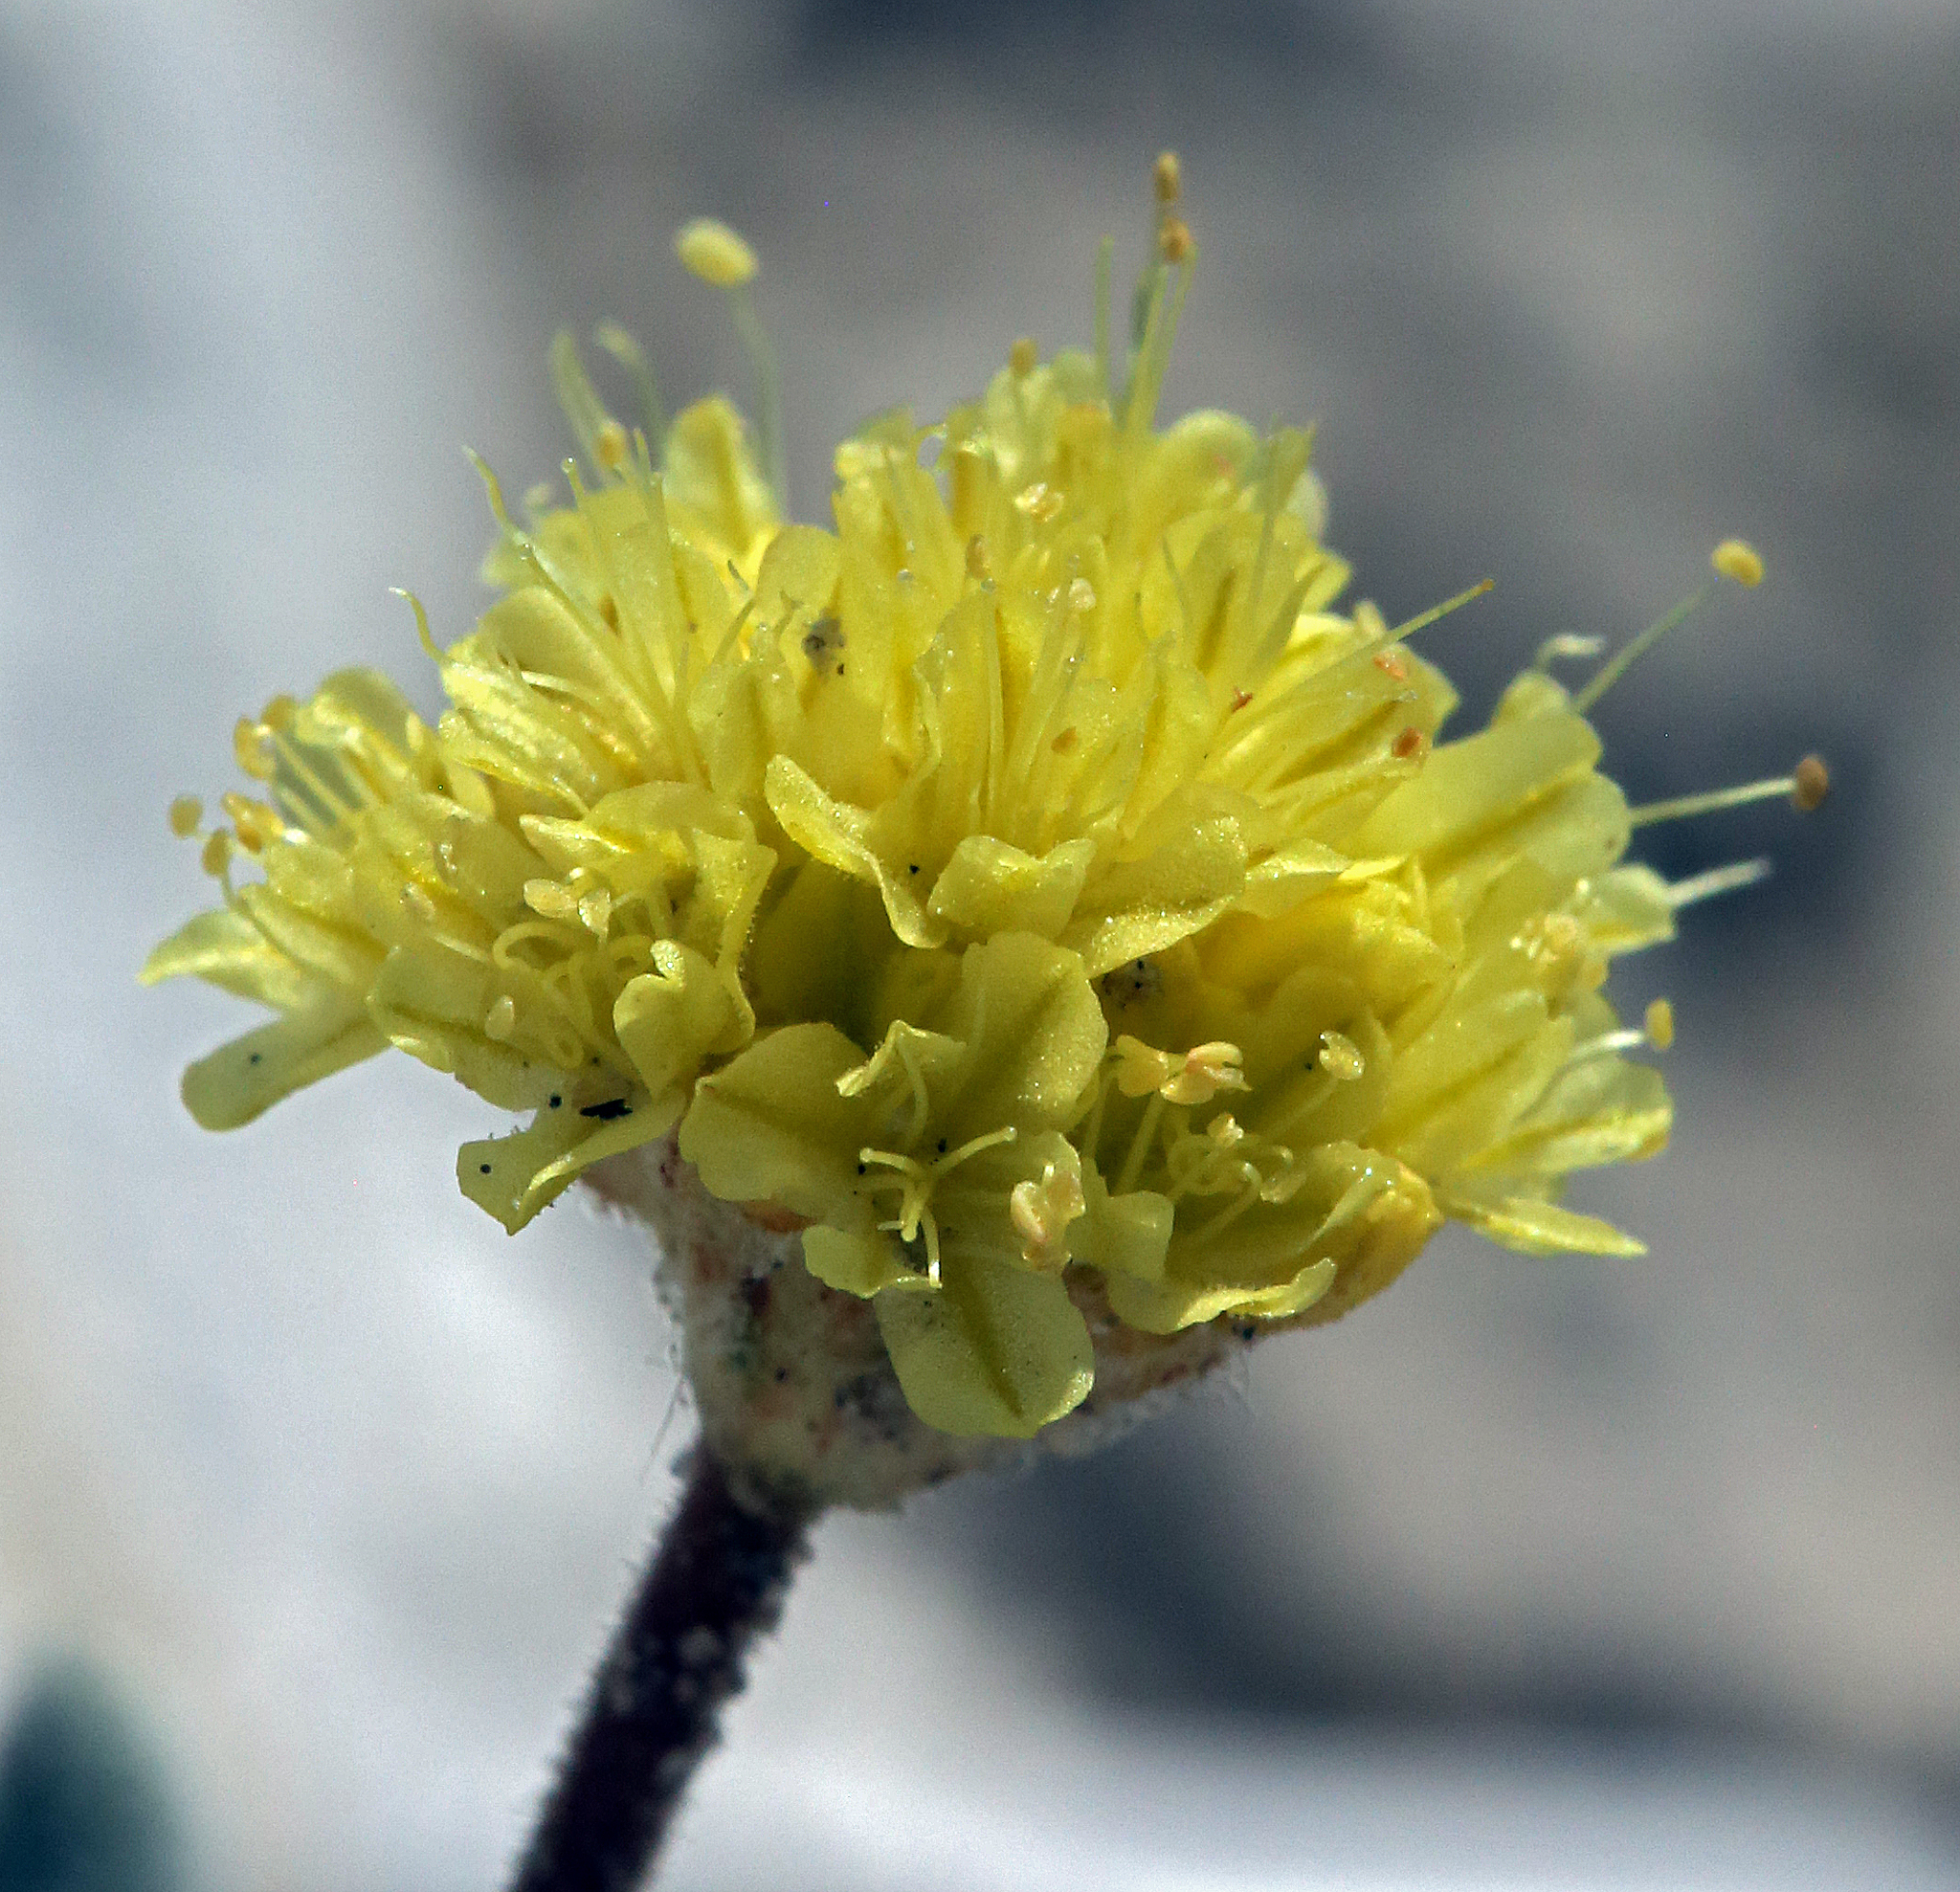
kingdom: Plantae
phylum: Tracheophyta
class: Magnoliopsida
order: Caryophyllales
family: Polygonaceae
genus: Eriogonum
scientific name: Eriogonum rosense
